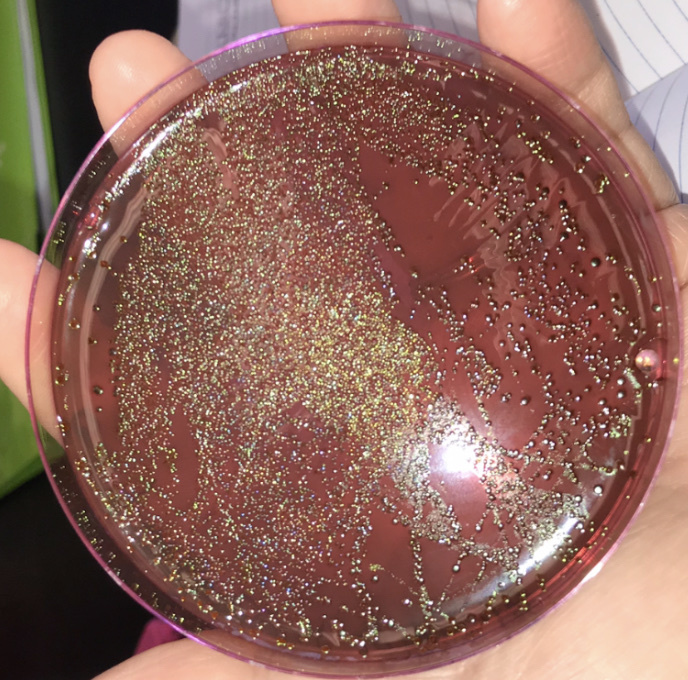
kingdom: Bacteria
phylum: Proteobacteria
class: Gammaproteobacteria
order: Enterobacterales
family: Enterobacteriaceae
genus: Escherichia
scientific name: Escherichia coli
